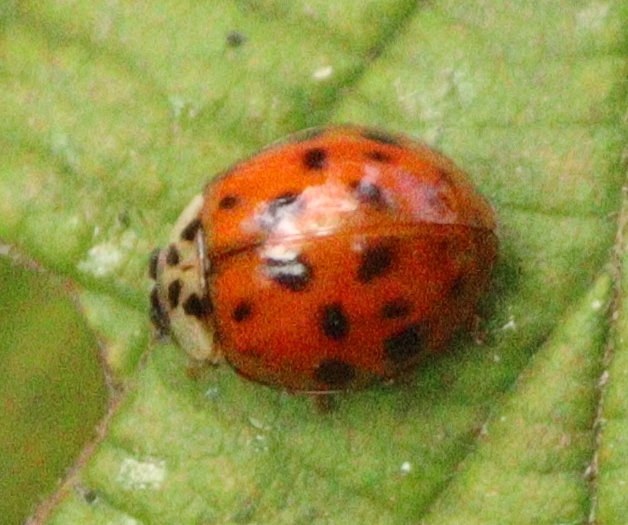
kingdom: Animalia
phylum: Arthropoda
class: Insecta
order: Coleoptera
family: Coccinellidae
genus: Harmonia
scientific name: Harmonia axyridis
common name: Harlequin ladybird
